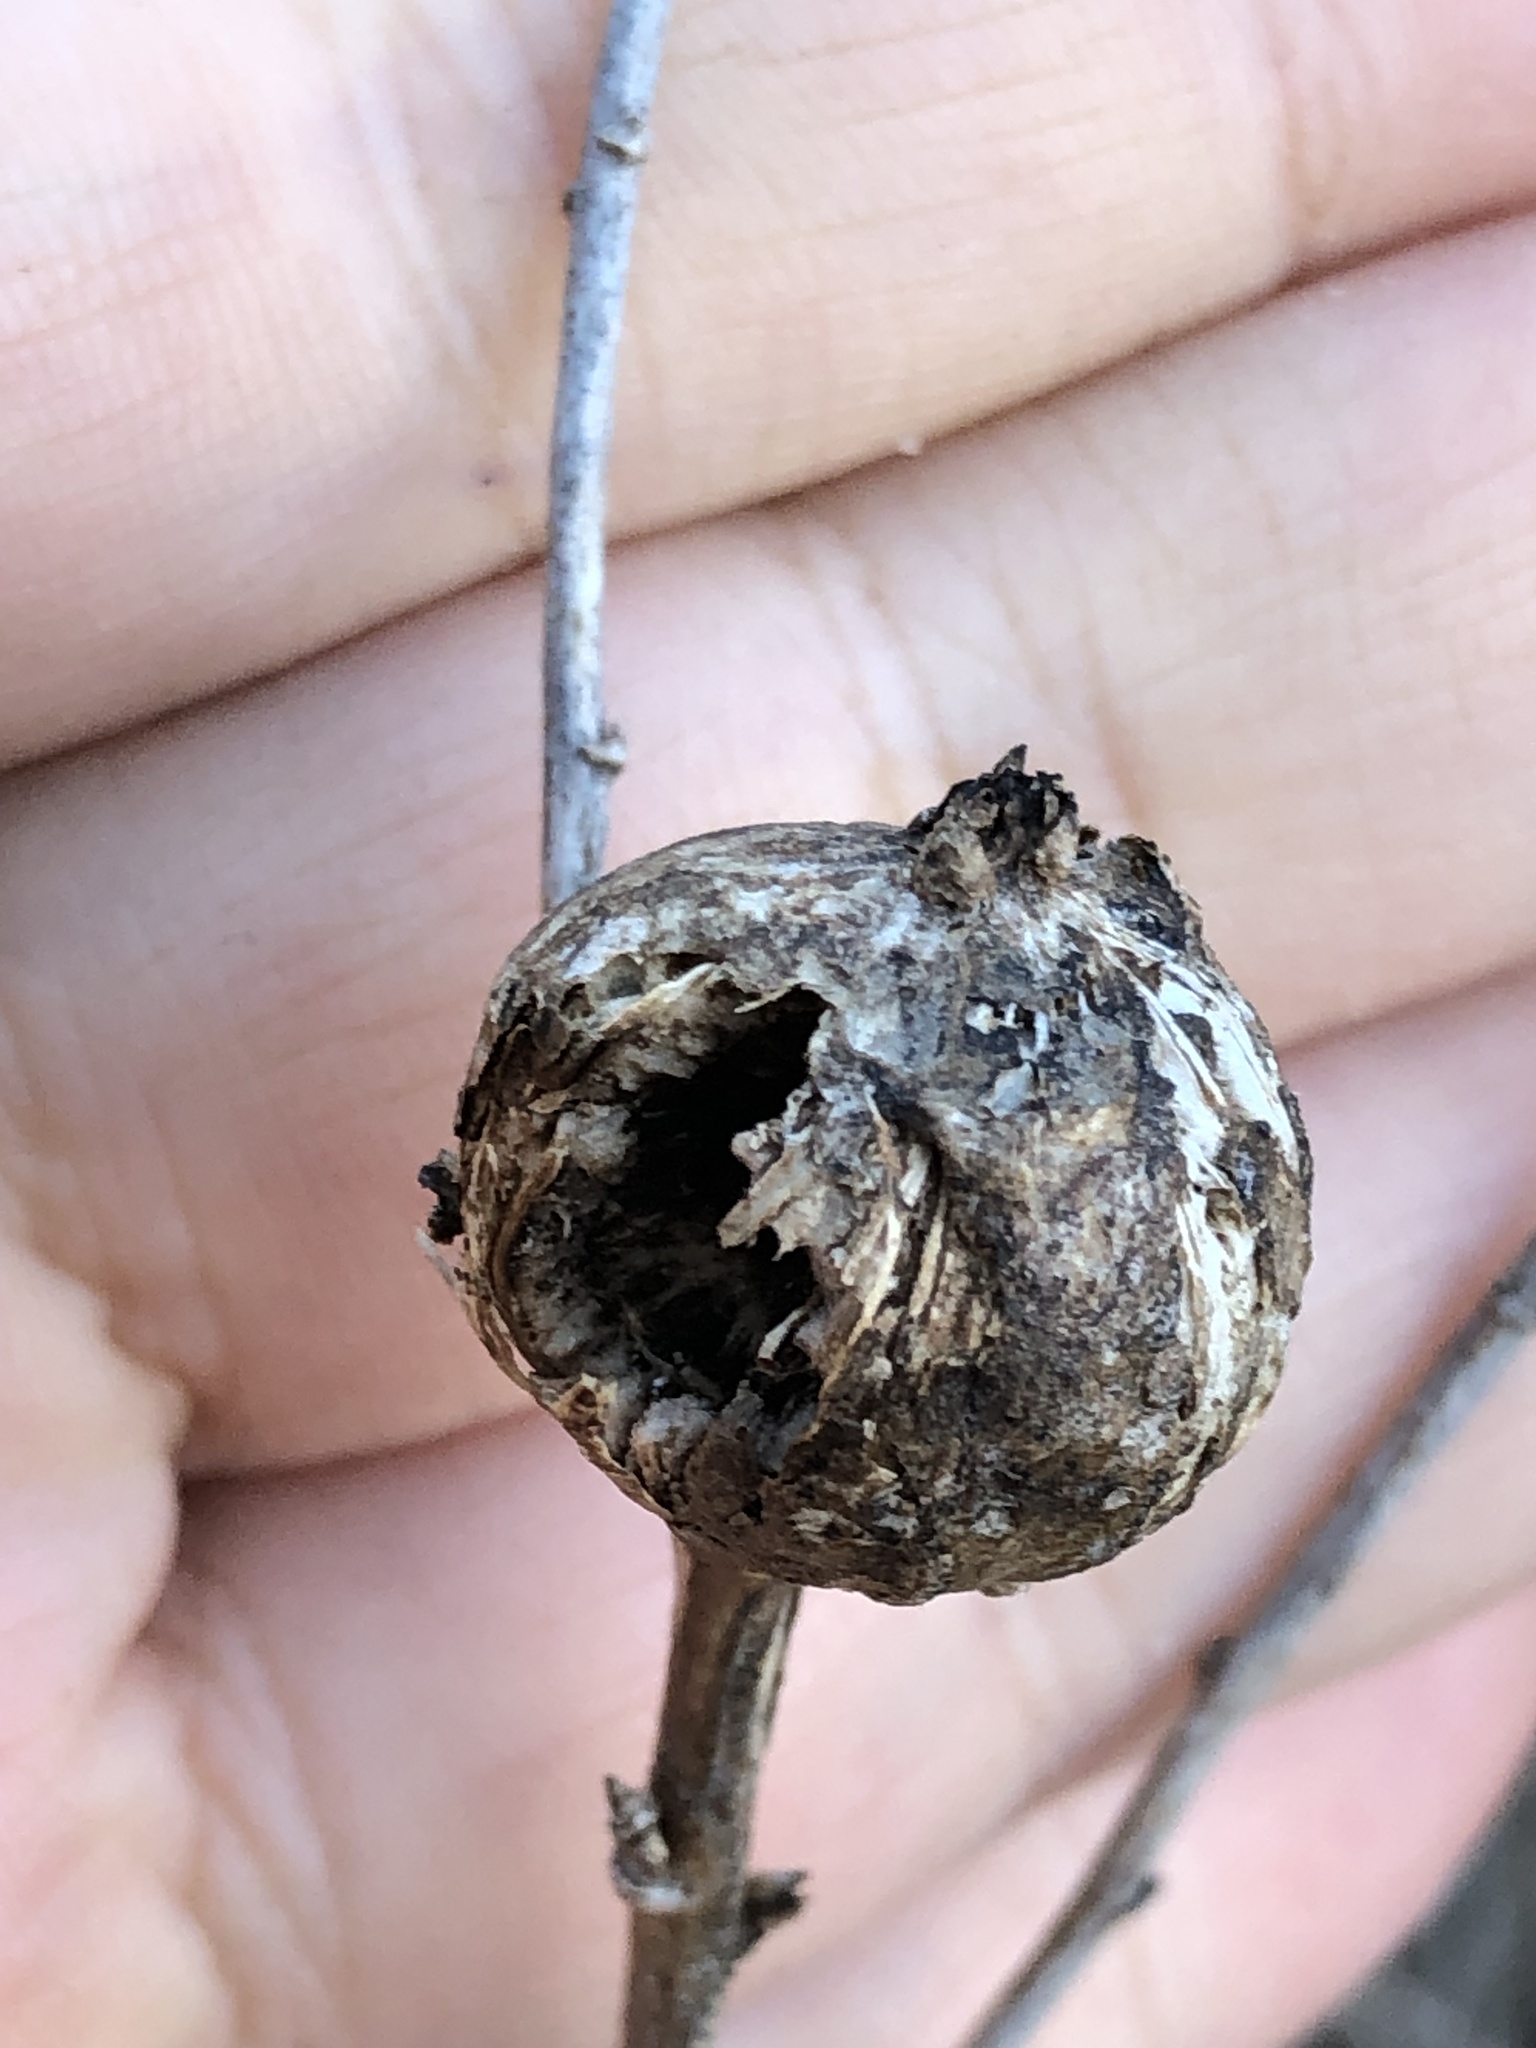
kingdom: Animalia
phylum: Arthropoda
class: Insecta
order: Diptera
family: Tephritidae
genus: Eurosta
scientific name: Eurosta solidaginis
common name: Goldenrod gall fly
